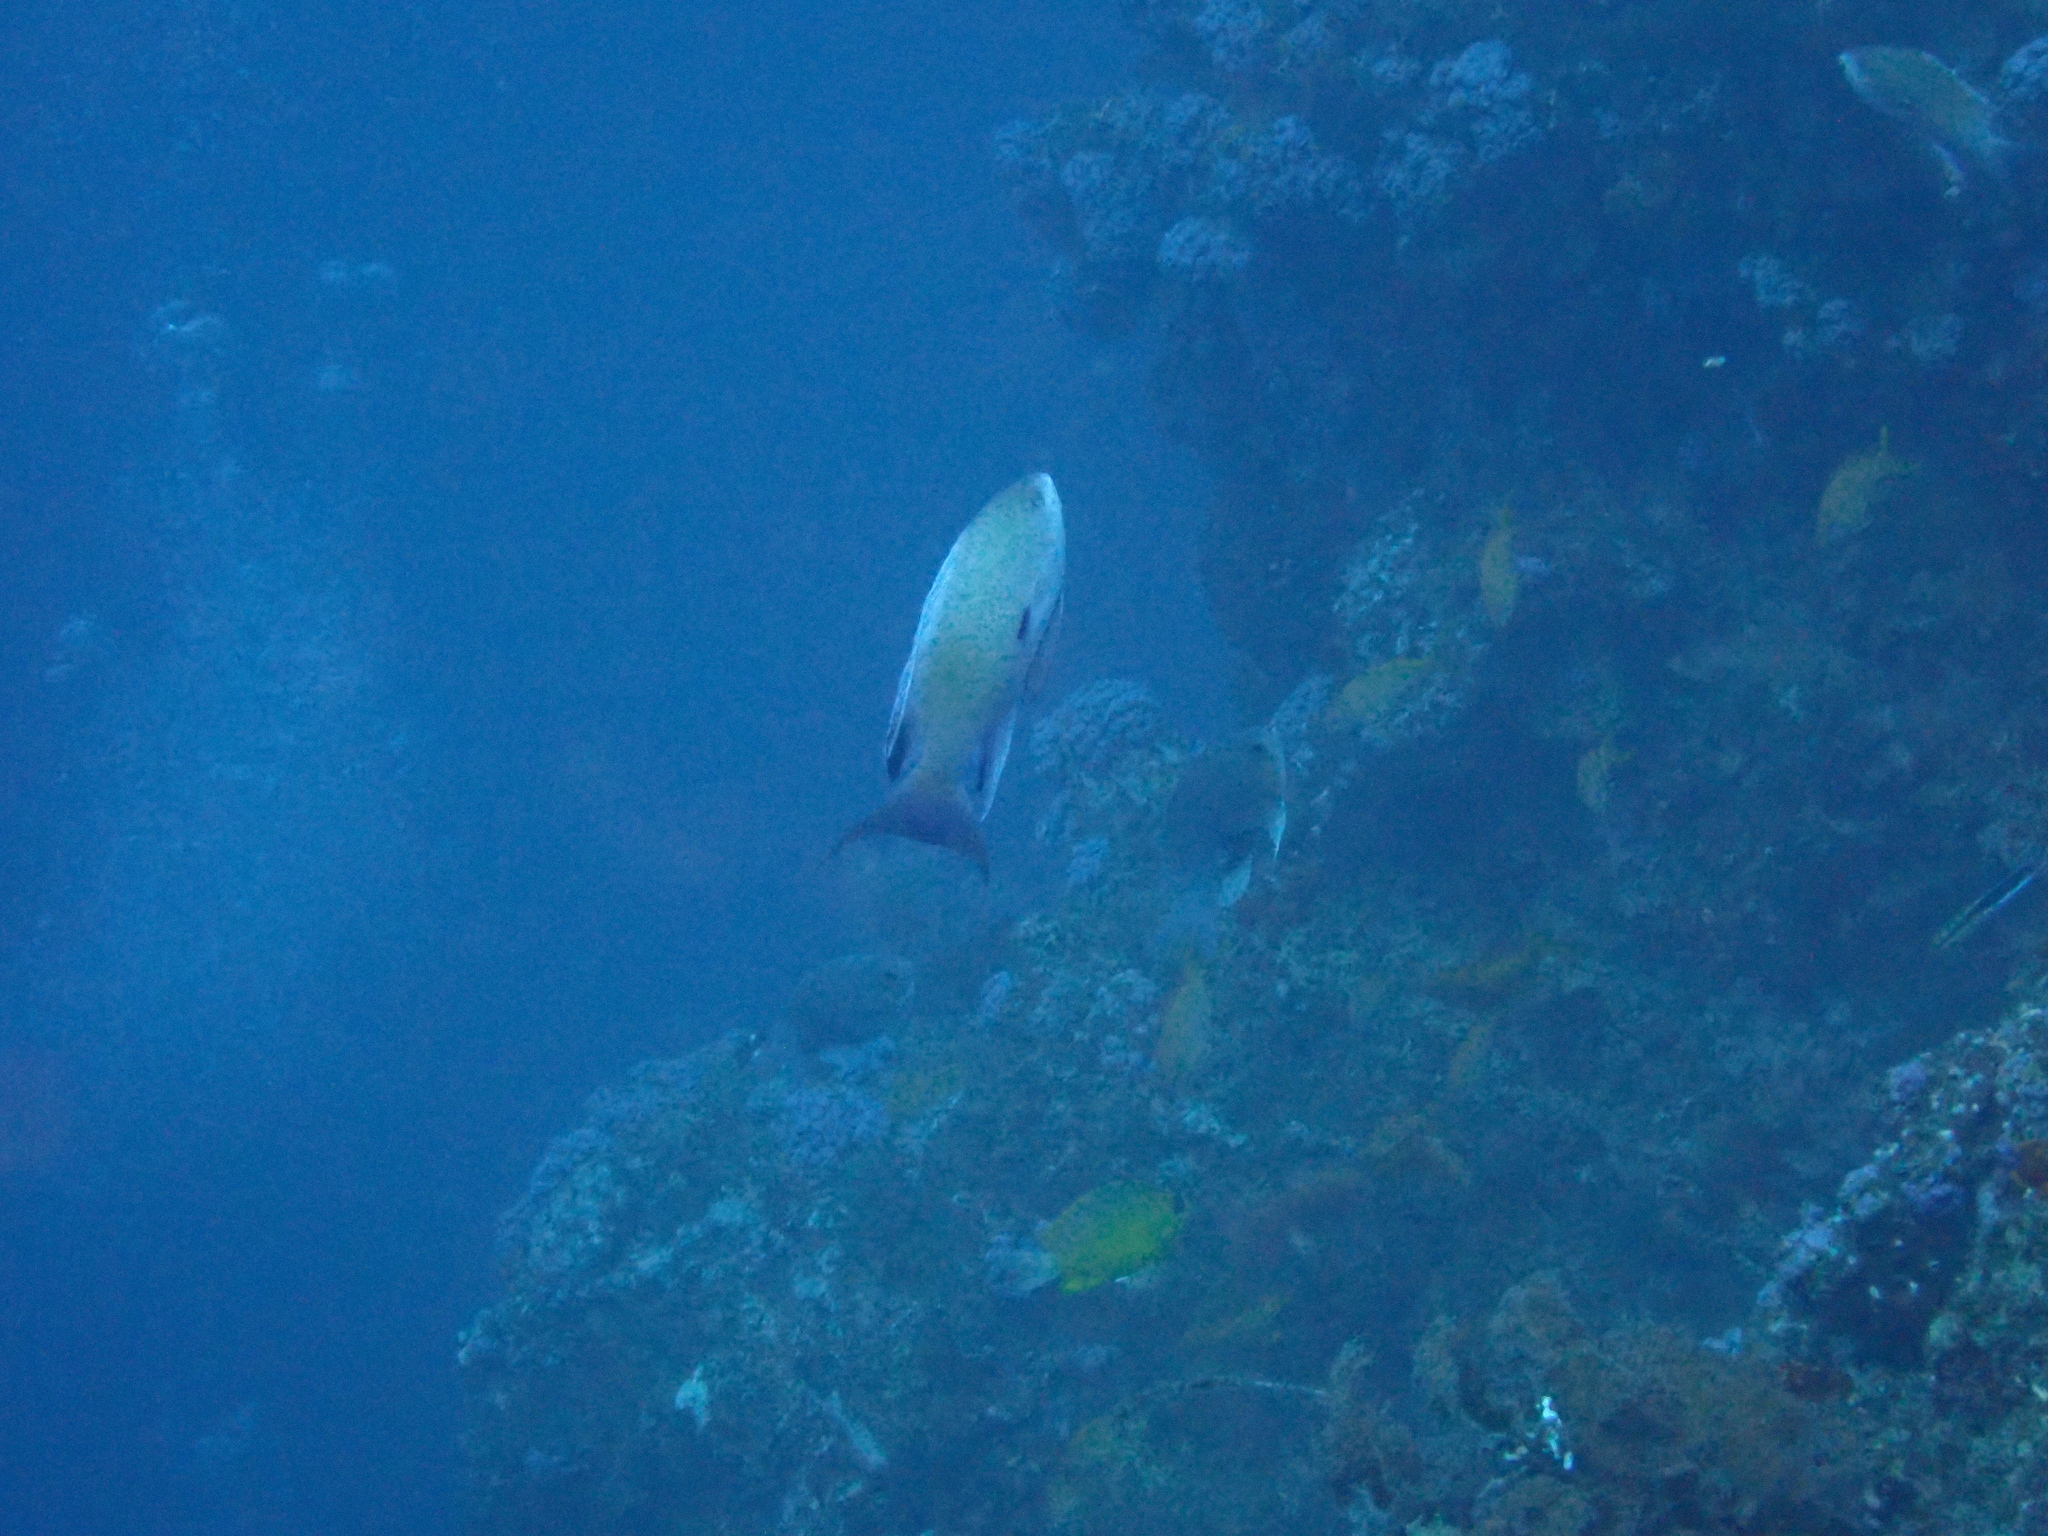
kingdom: Animalia
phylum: Chordata
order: Perciformes
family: Serranidae
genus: Pseudanthias
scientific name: Pseudanthias nobilis
